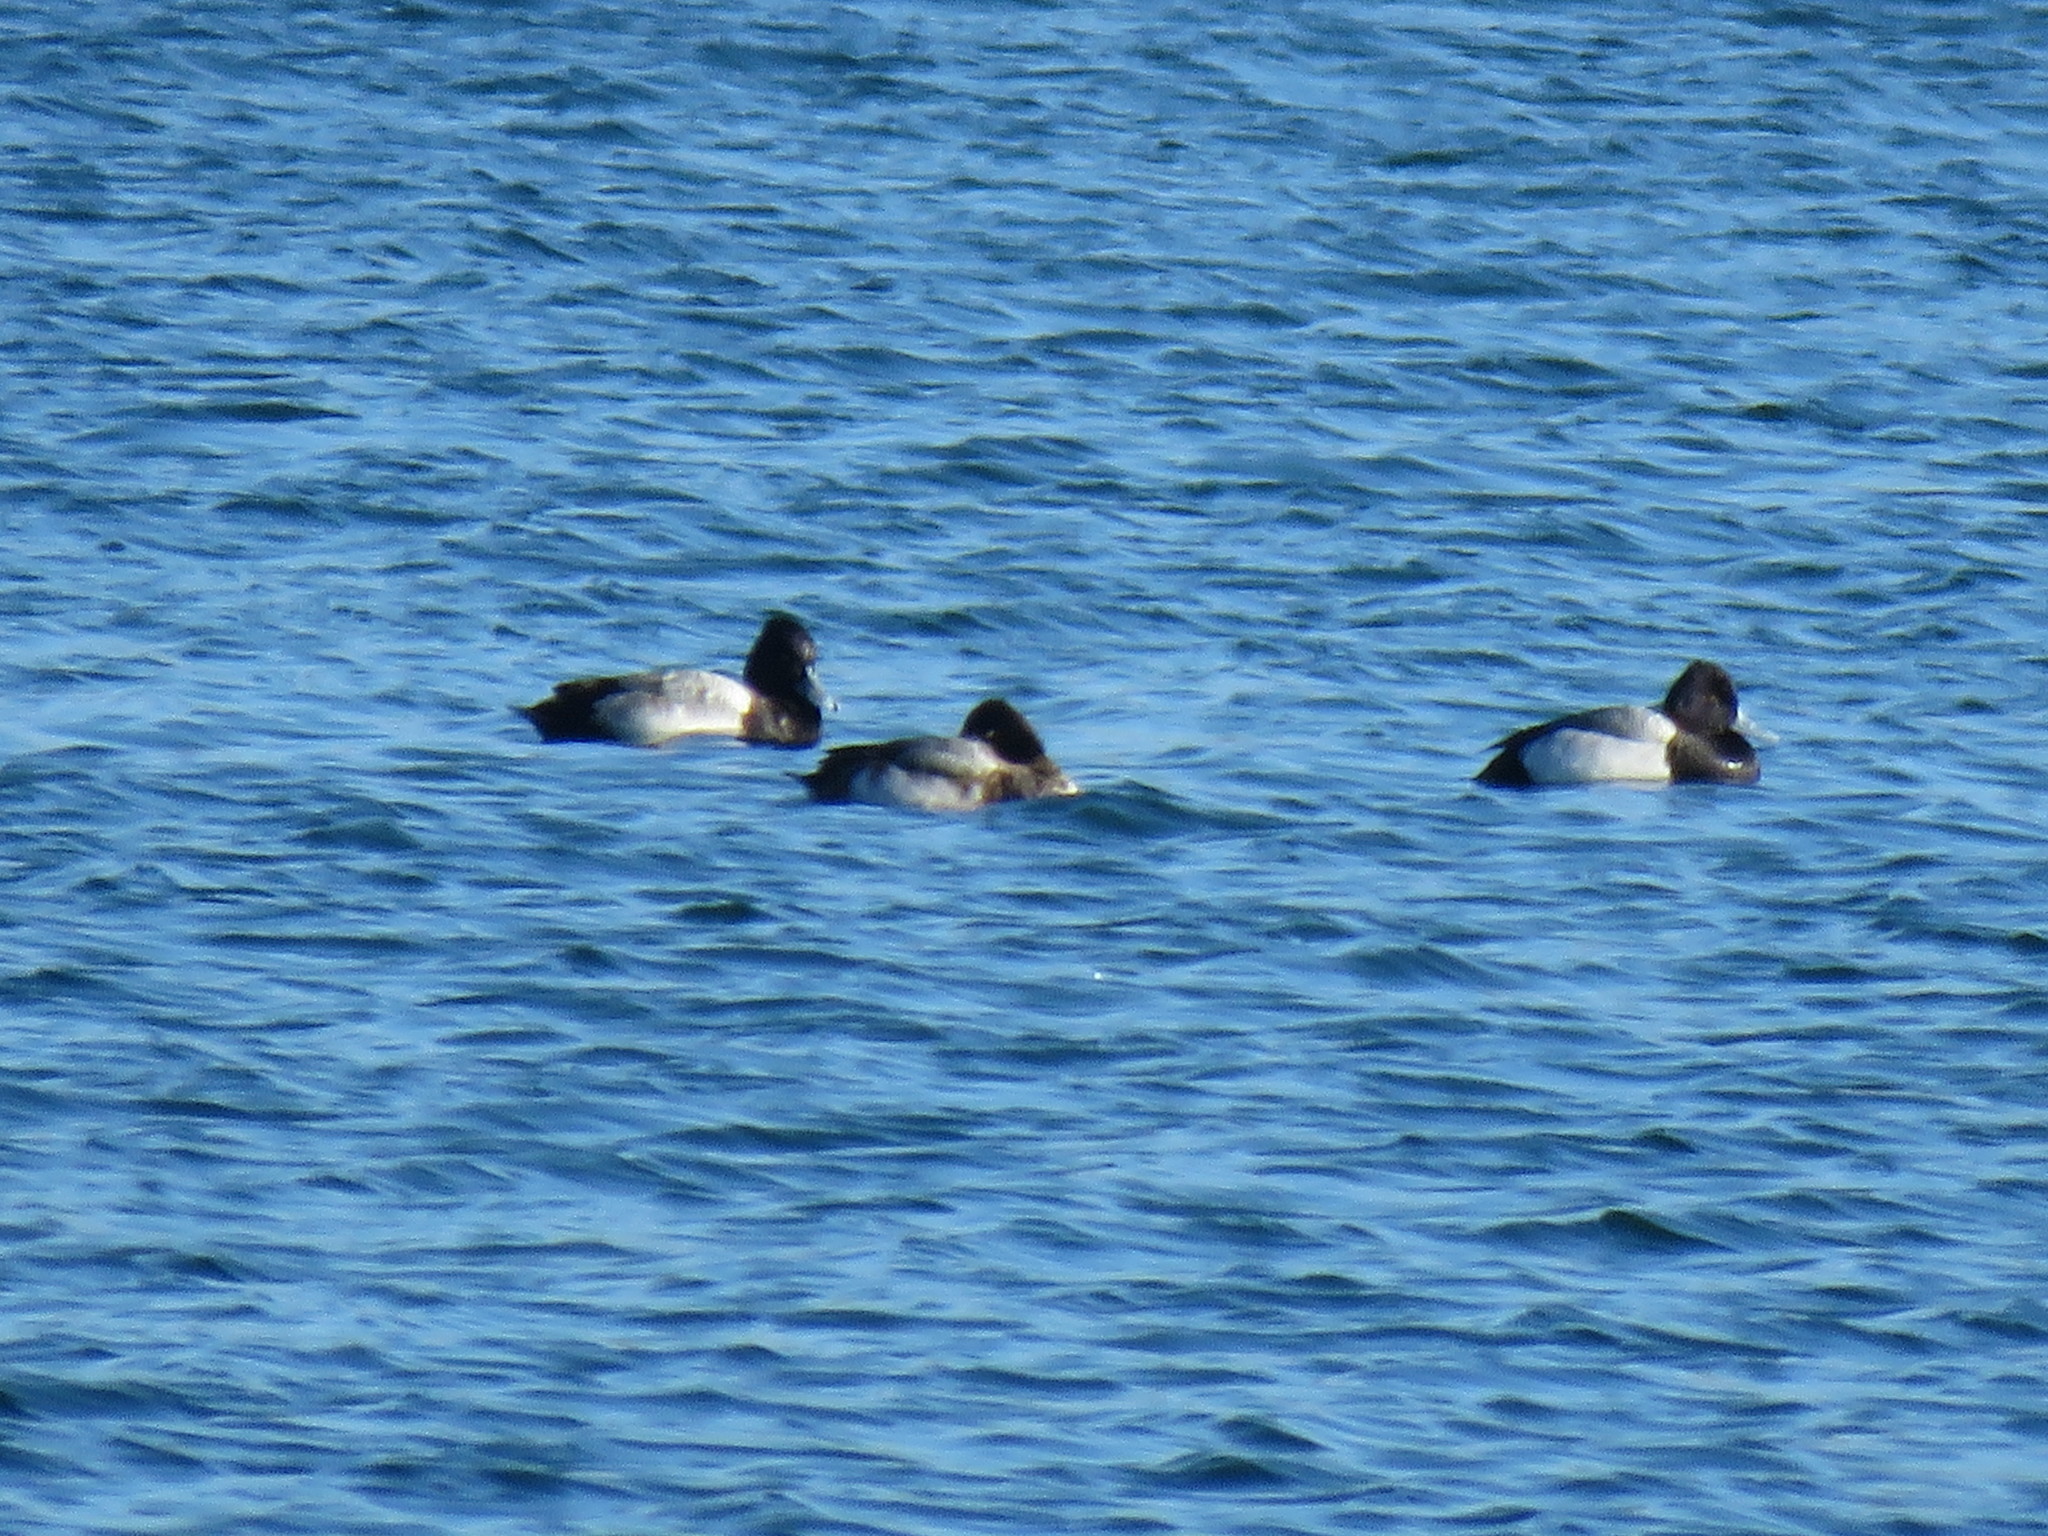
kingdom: Animalia
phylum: Chordata
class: Aves
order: Anseriformes
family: Anatidae
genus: Aythya
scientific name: Aythya affinis
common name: Lesser scaup
